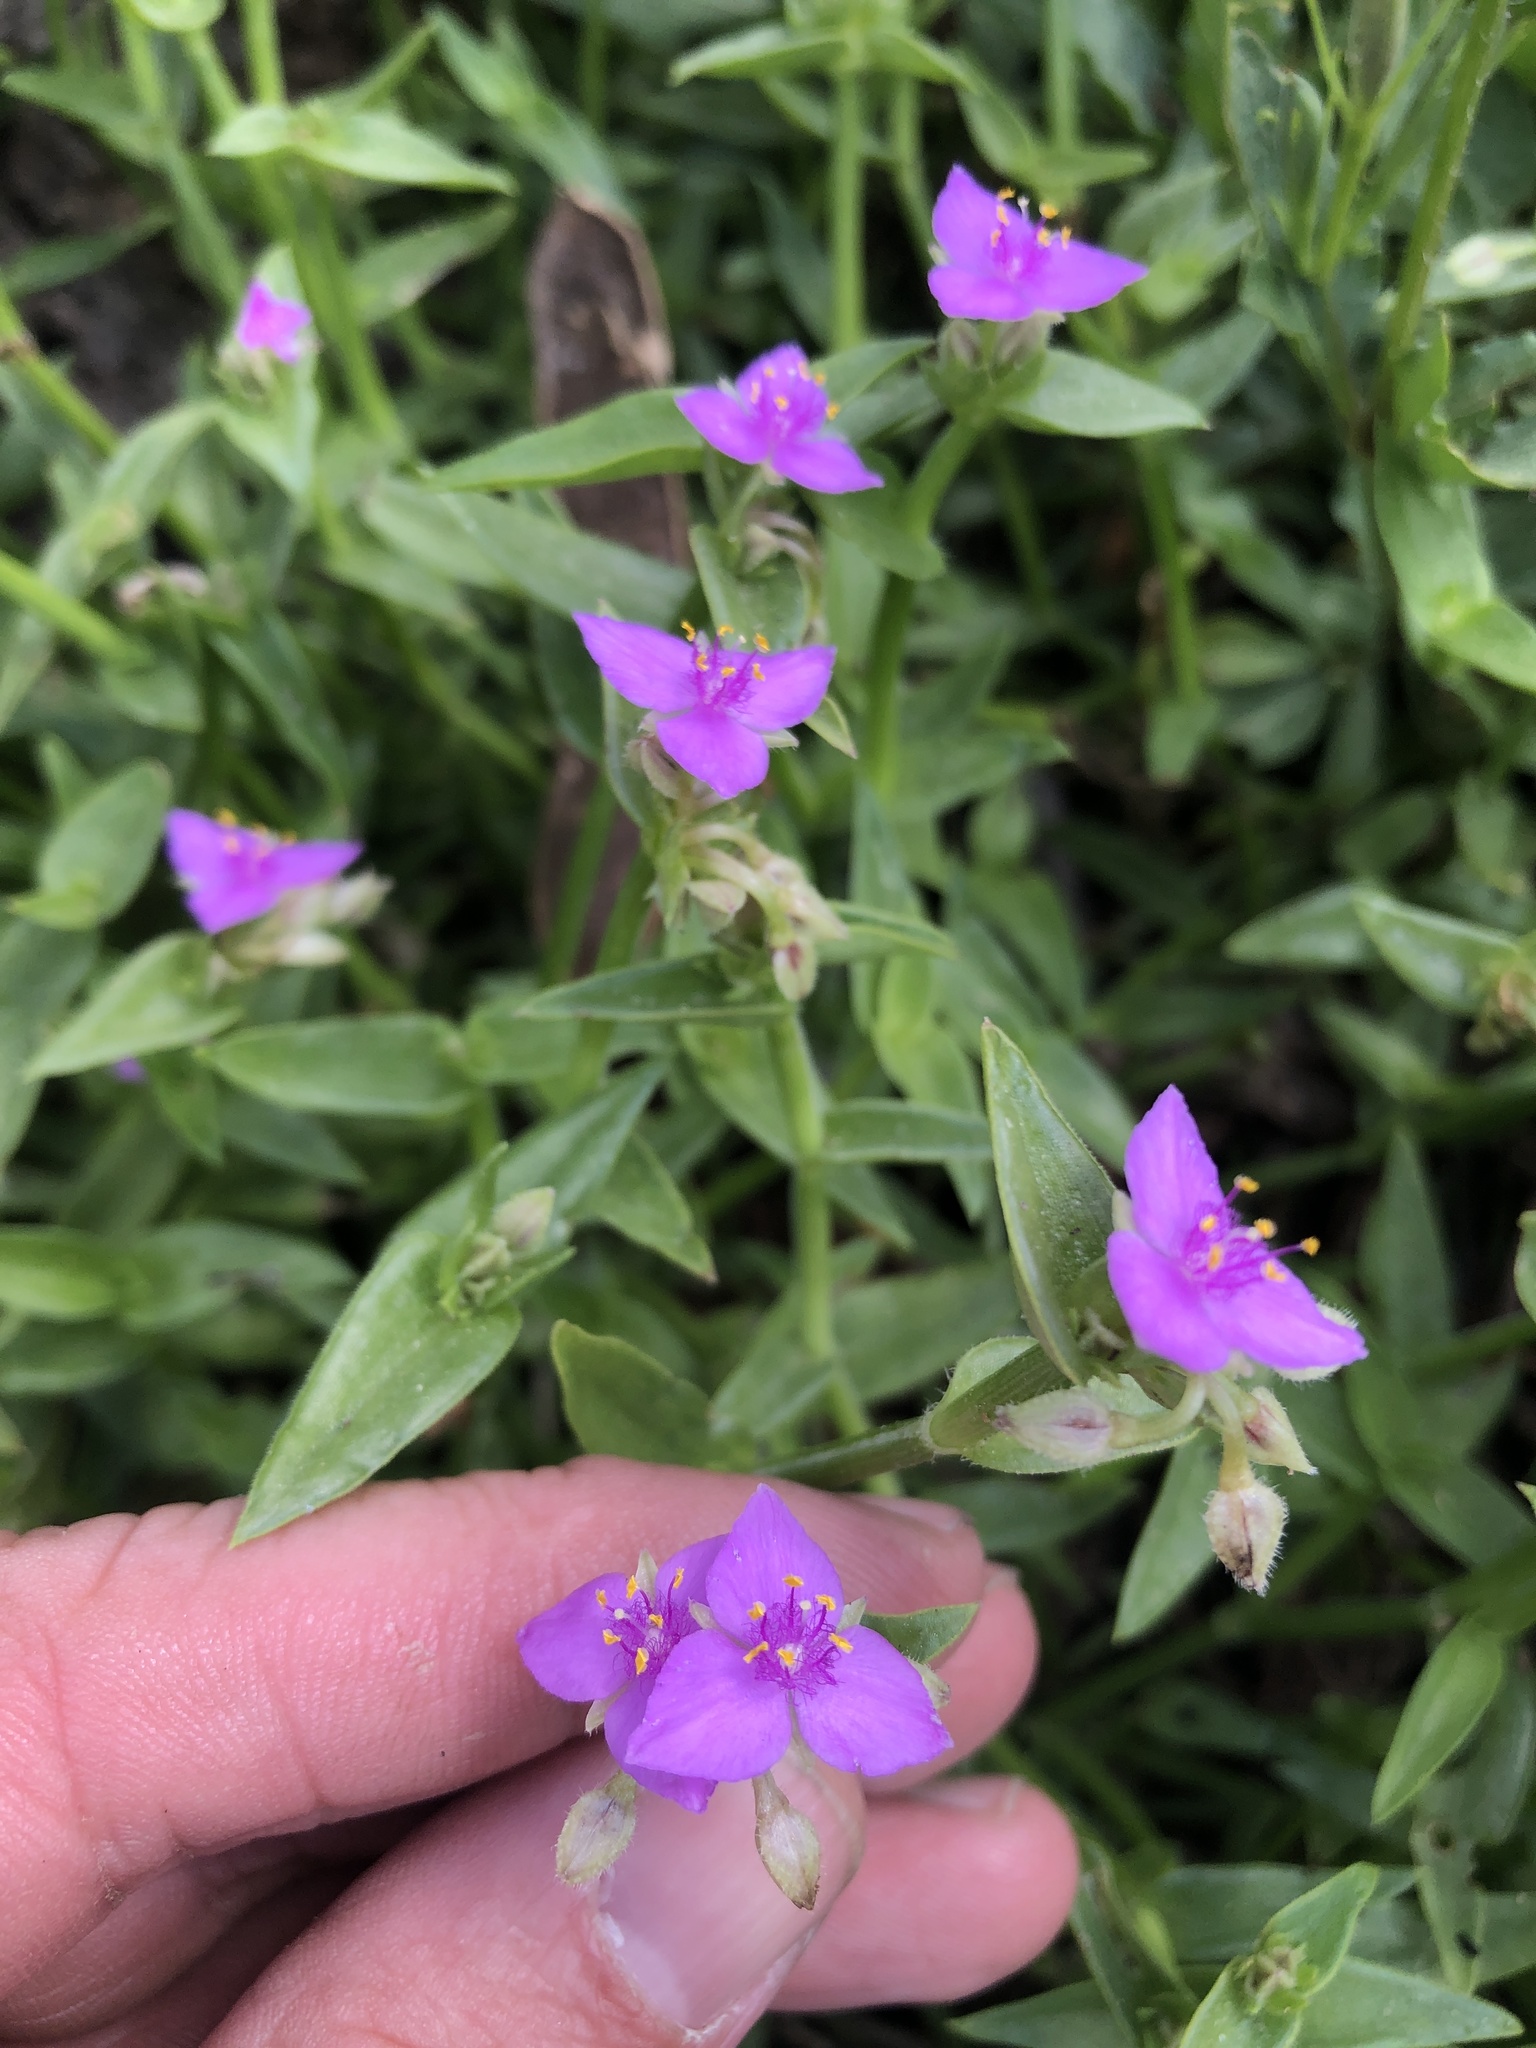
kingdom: Plantae
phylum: Tracheophyta
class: Liliopsida
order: Commelinales
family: Commelinaceae
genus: Callisia
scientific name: Callisia micrantha
